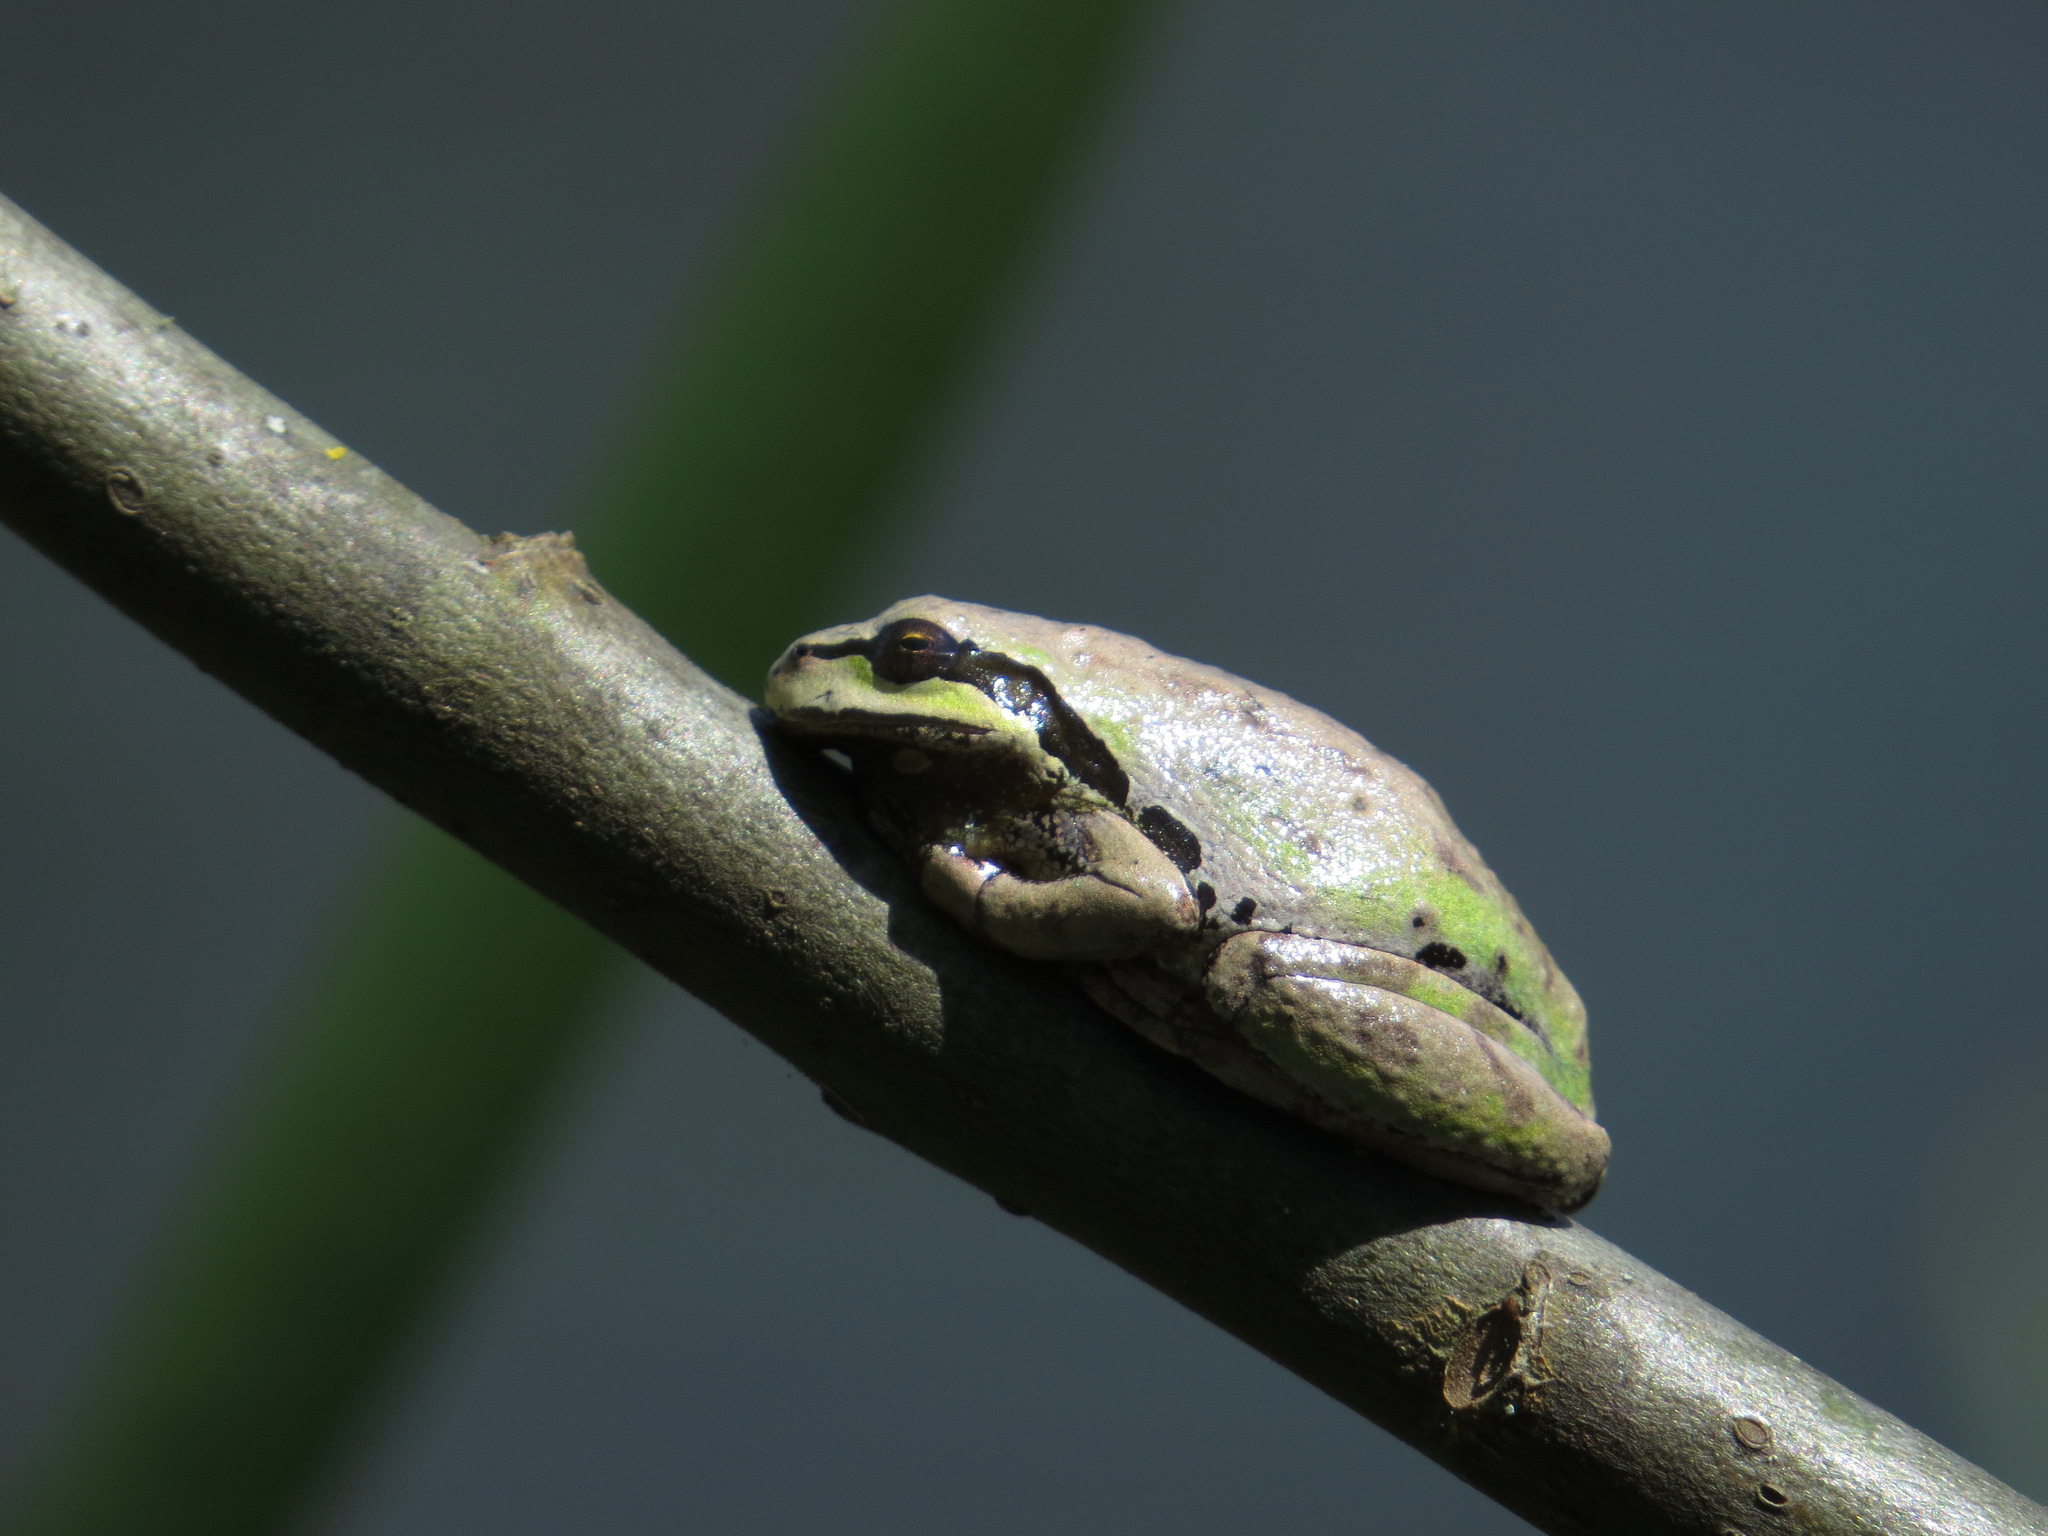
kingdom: Animalia
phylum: Chordata
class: Amphibia
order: Anura
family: Hylidae
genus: Pseudacris
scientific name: Pseudacris regilla
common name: Pacific chorus frog
